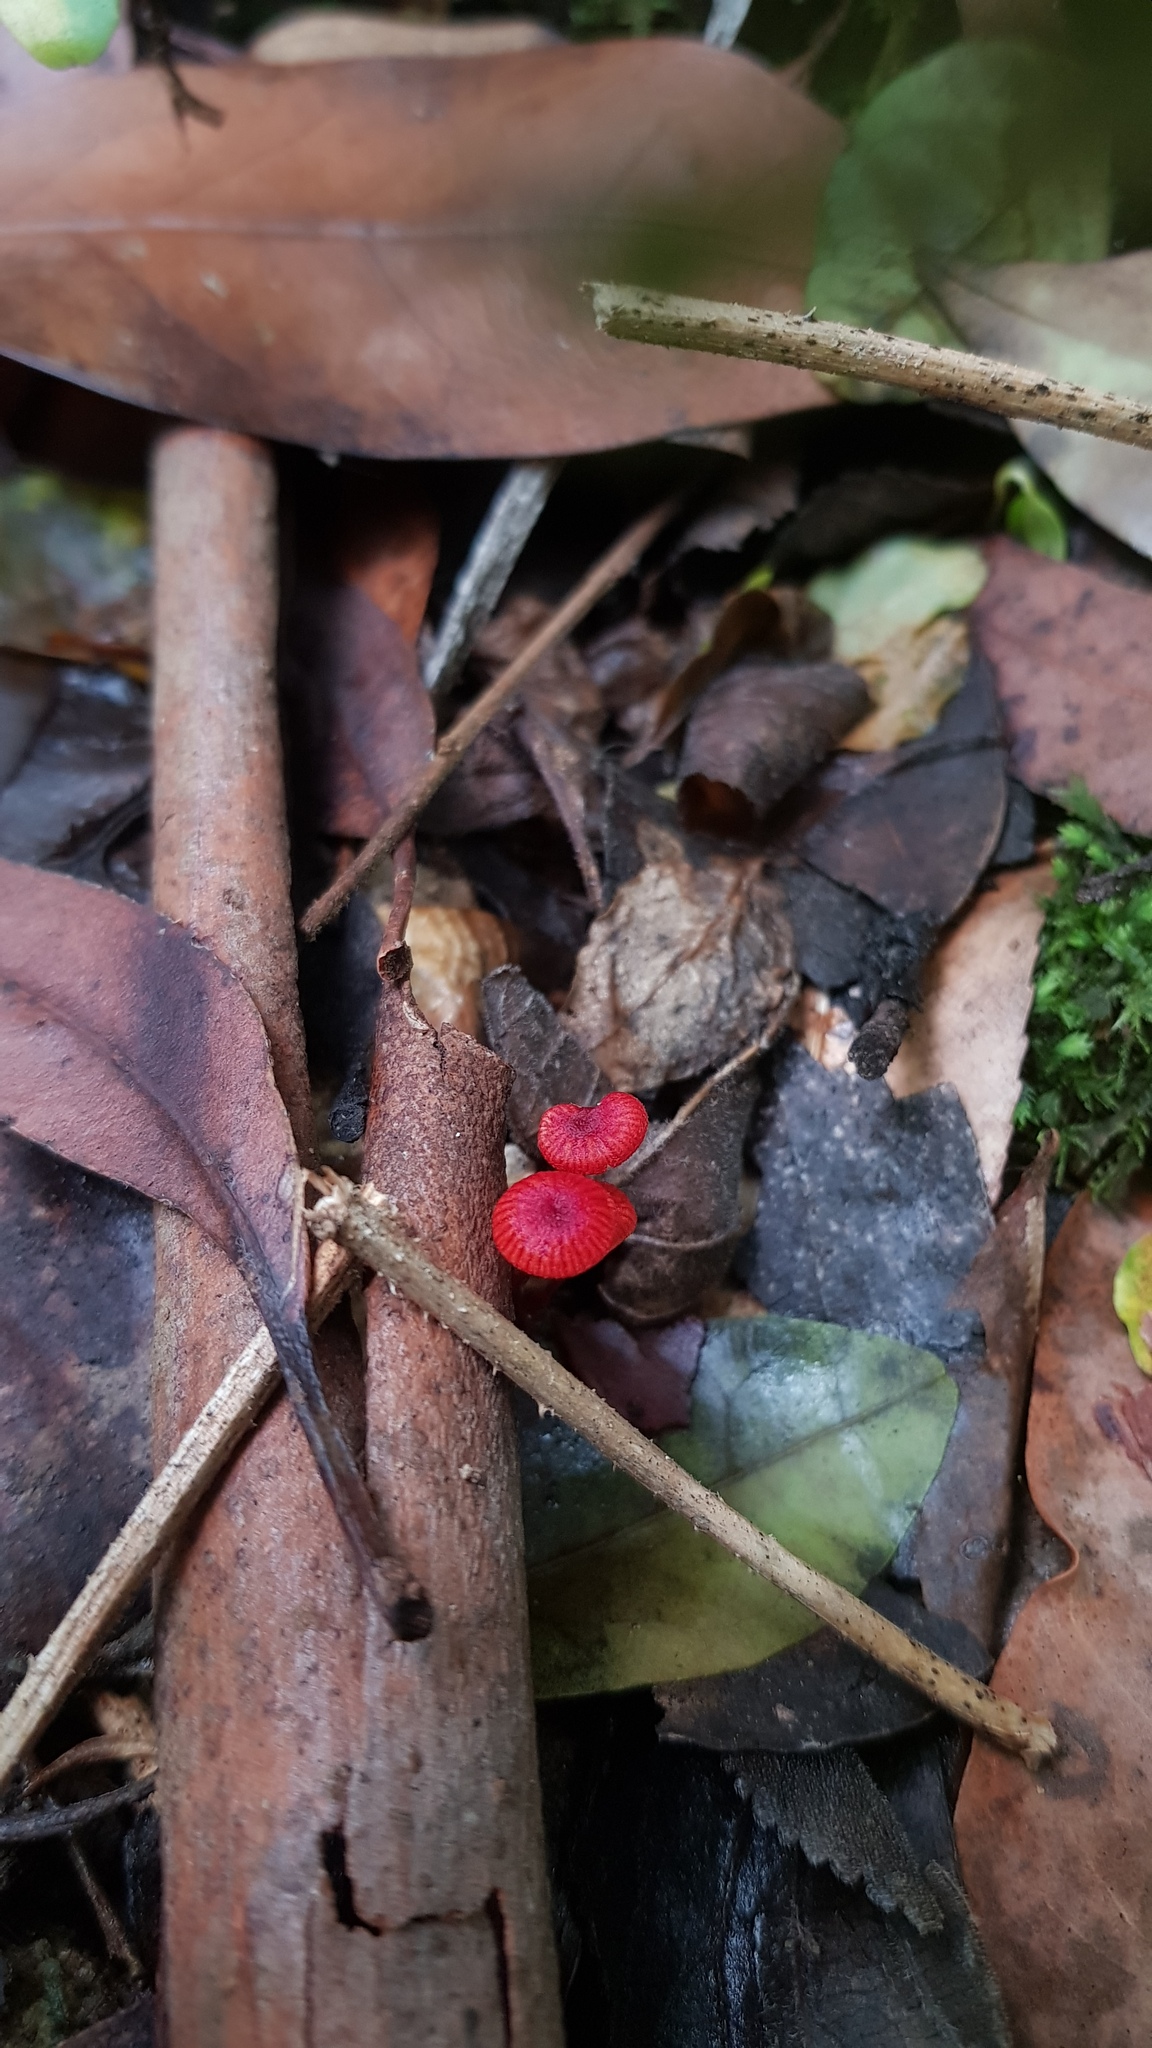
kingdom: Fungi
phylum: Basidiomycota
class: Agaricomycetes
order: Agaricales
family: Mycenaceae
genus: Cruentomycena
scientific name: Cruentomycena viscidocruenta
